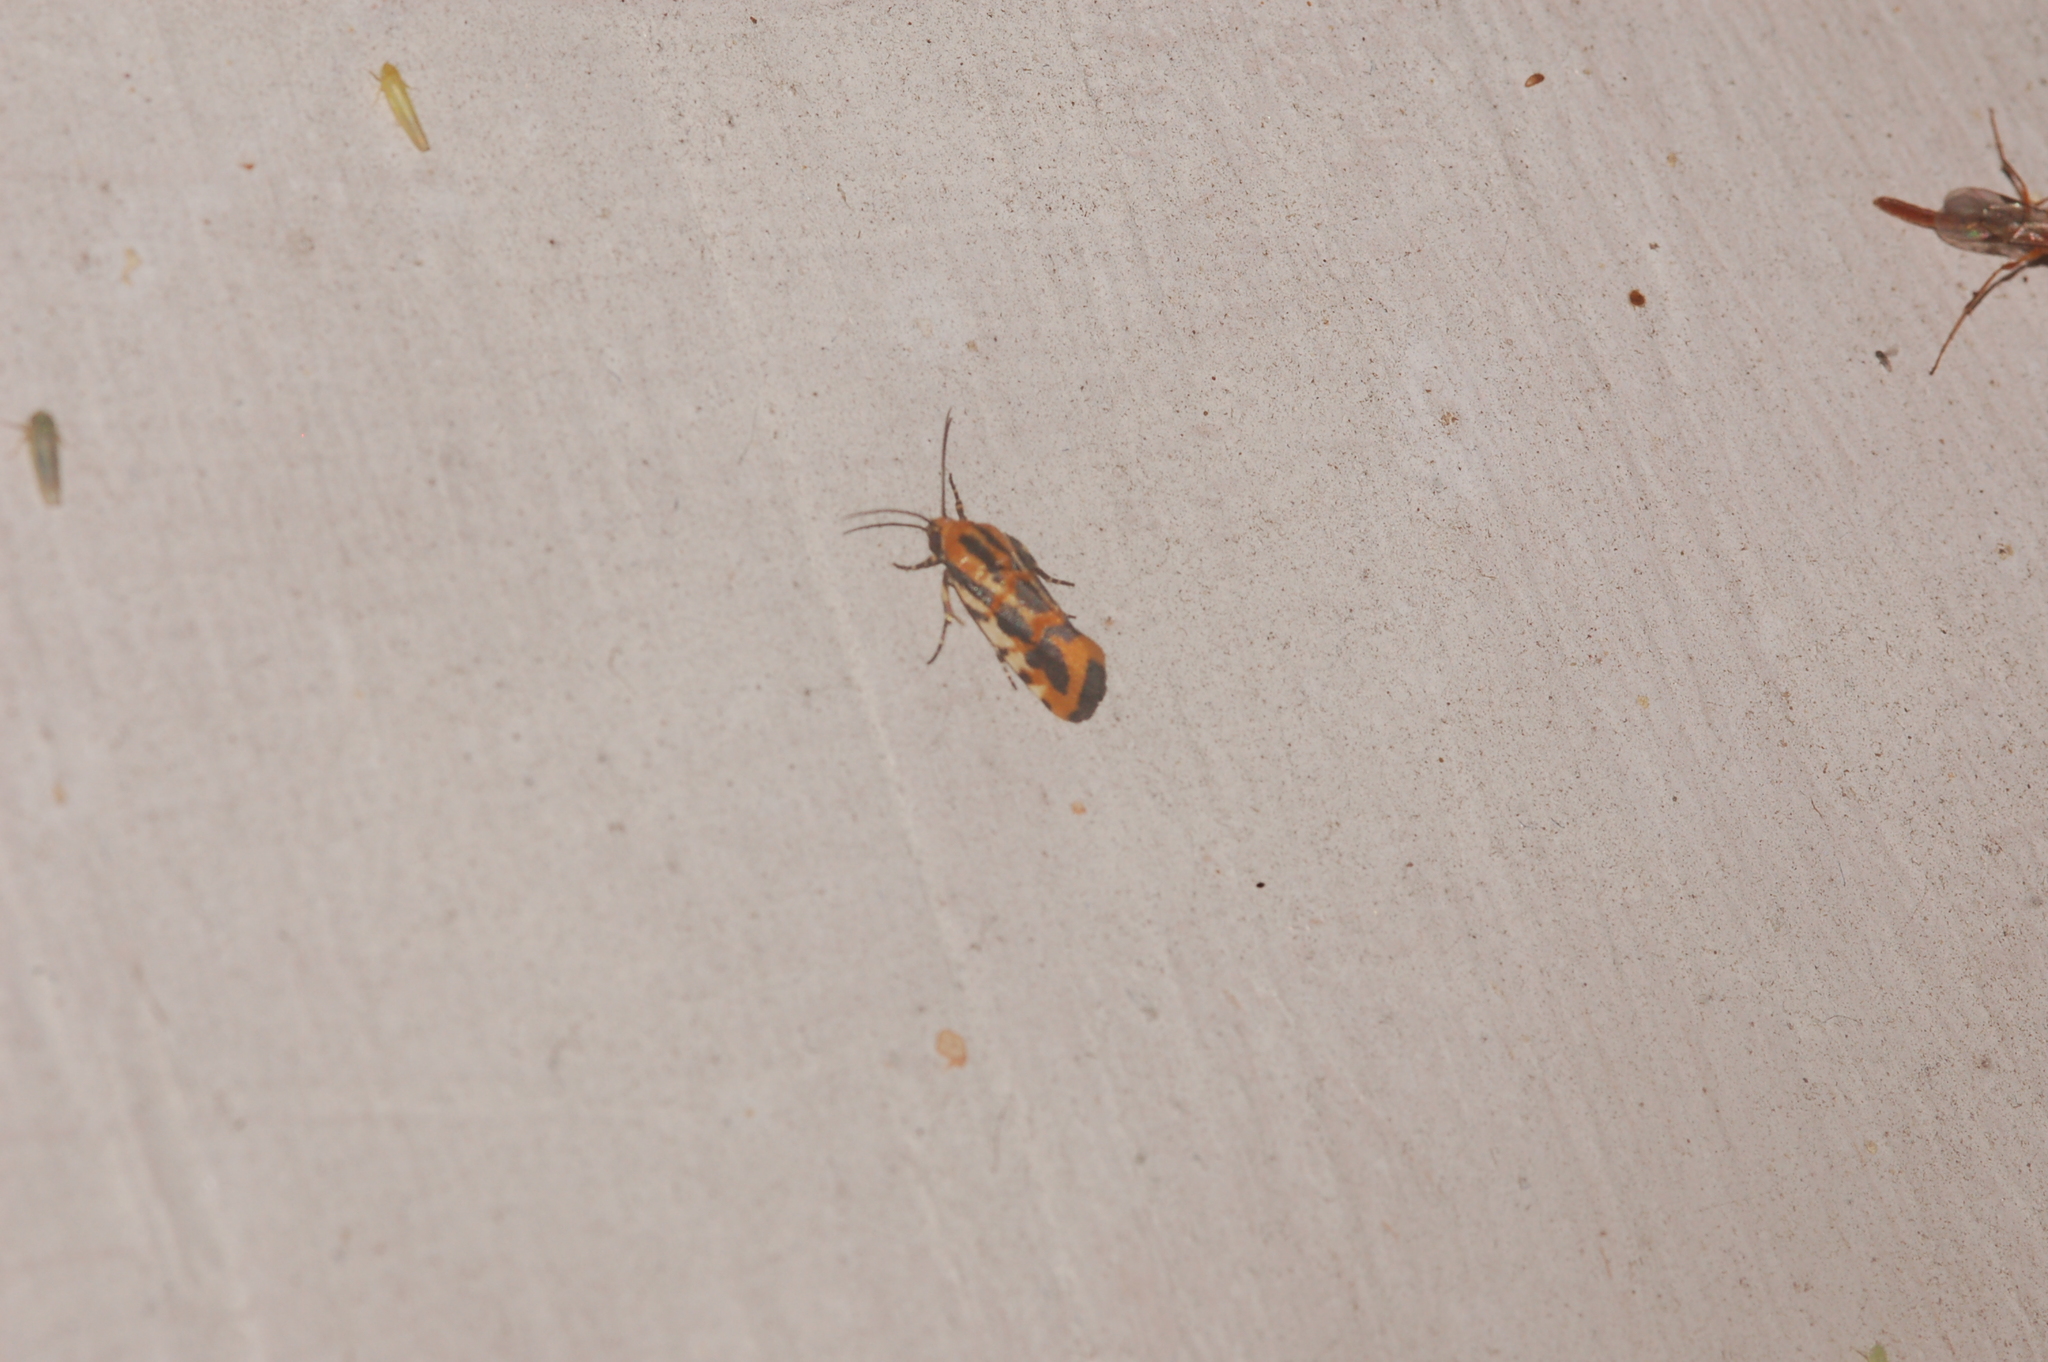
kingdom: Animalia
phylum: Arthropoda
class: Insecta
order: Lepidoptera
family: Noctuidae
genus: Acontia
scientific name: Acontia leo
